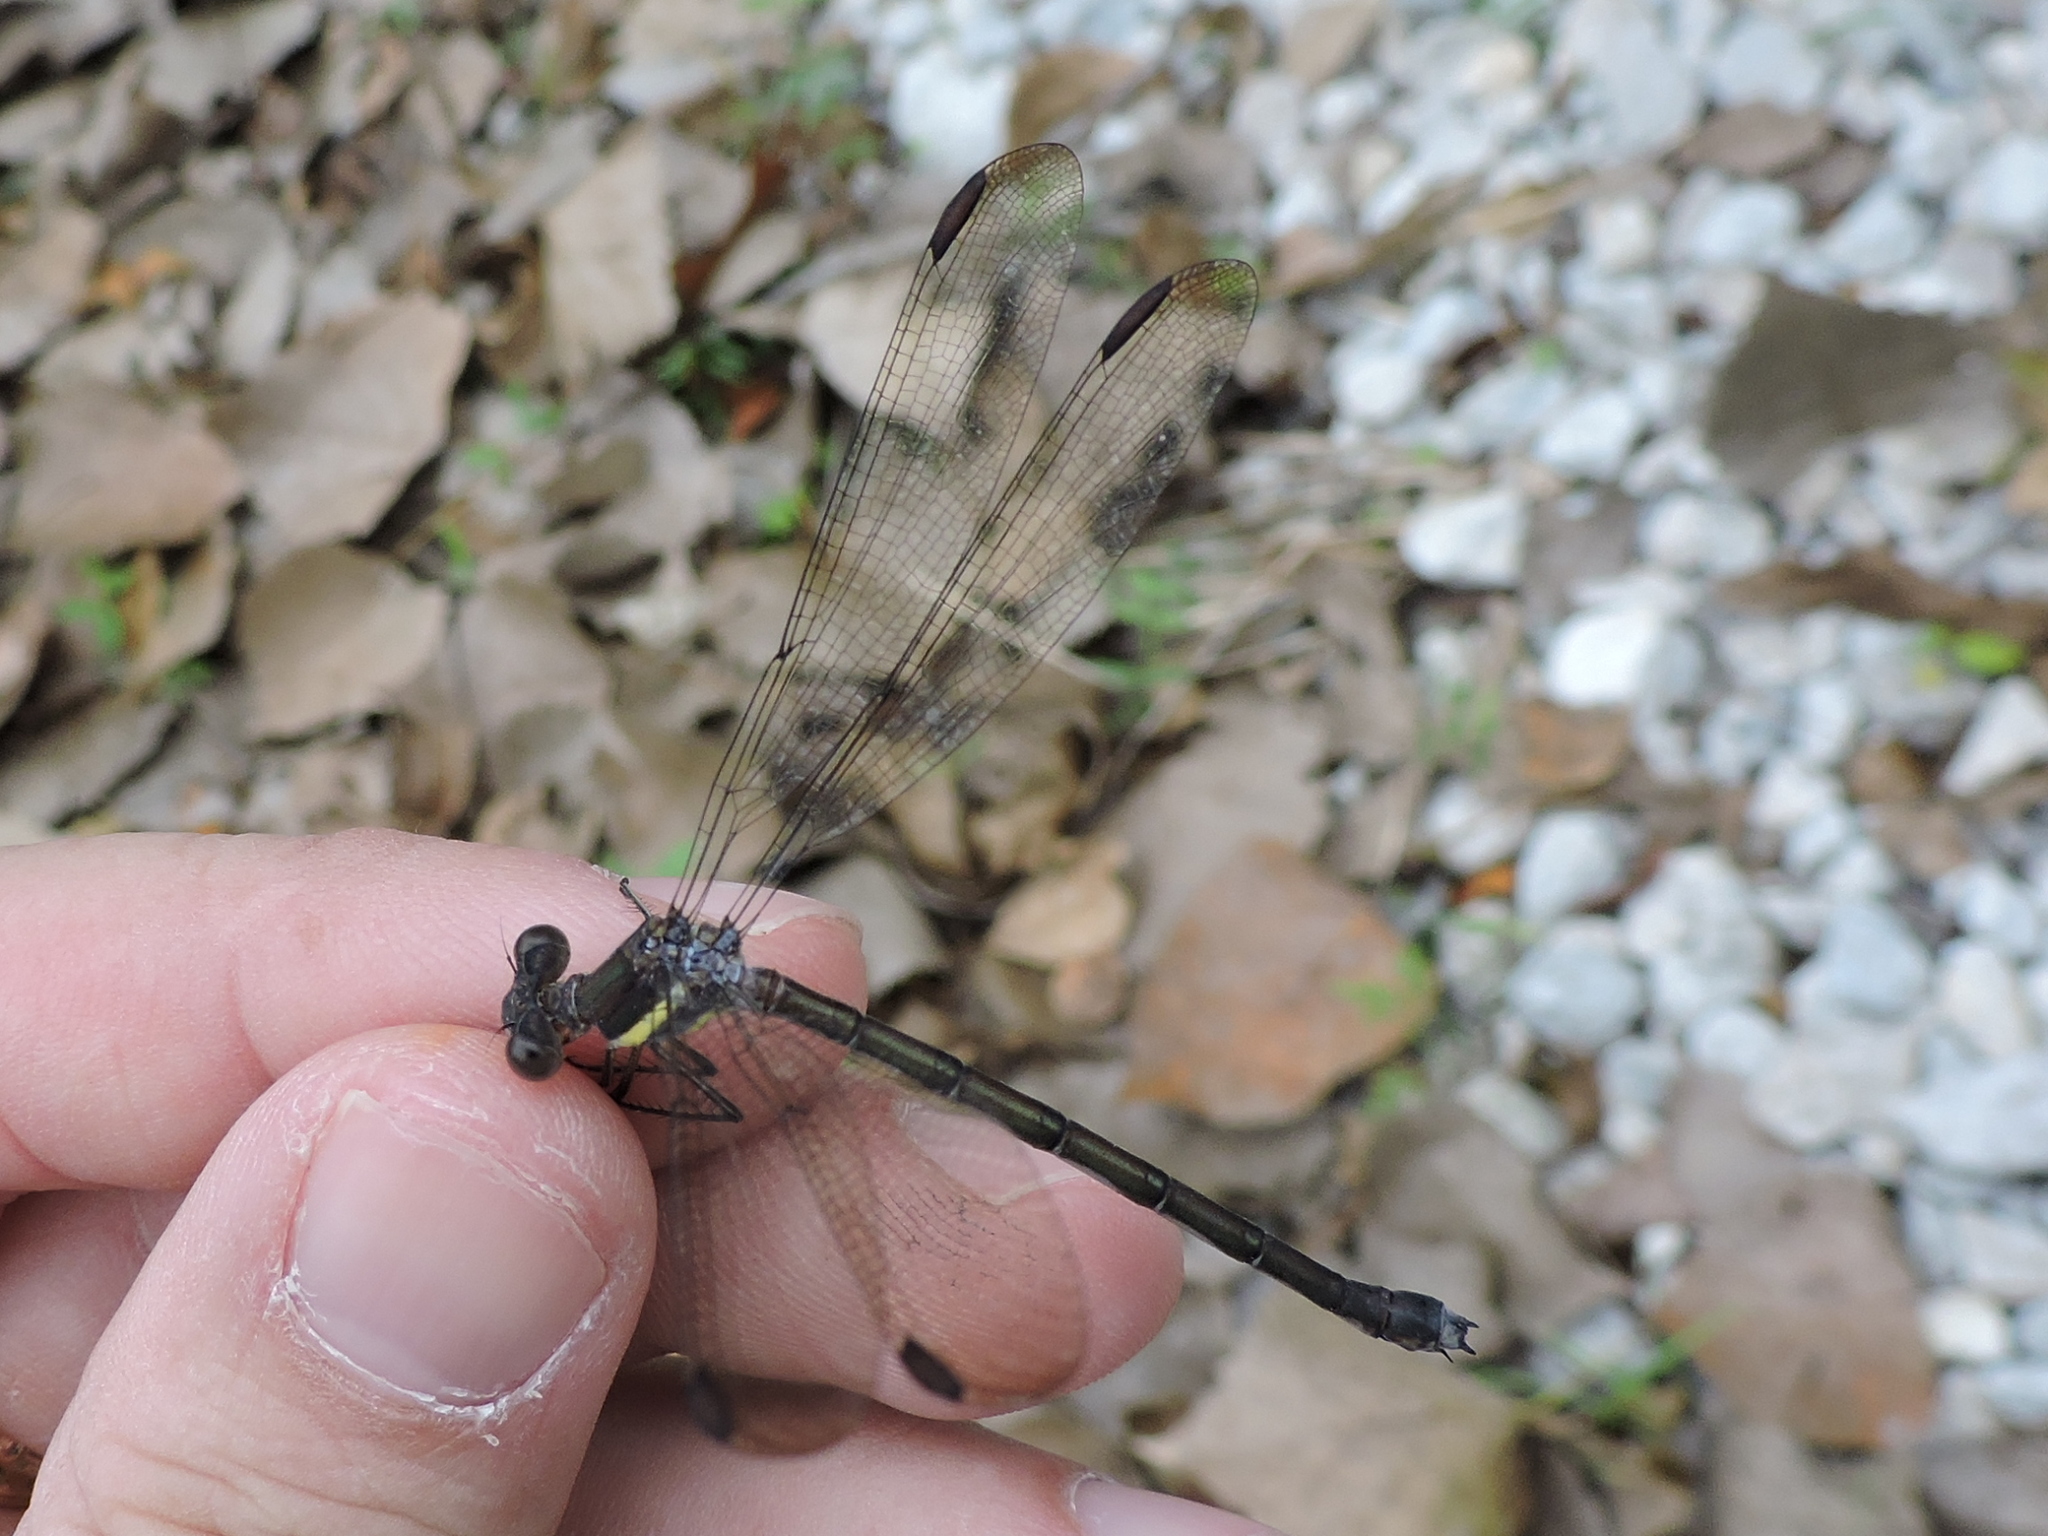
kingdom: Animalia
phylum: Arthropoda
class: Insecta
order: Odonata
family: Lestidae
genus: Archilestes
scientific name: Archilestes grandis
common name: Great spreadwing
